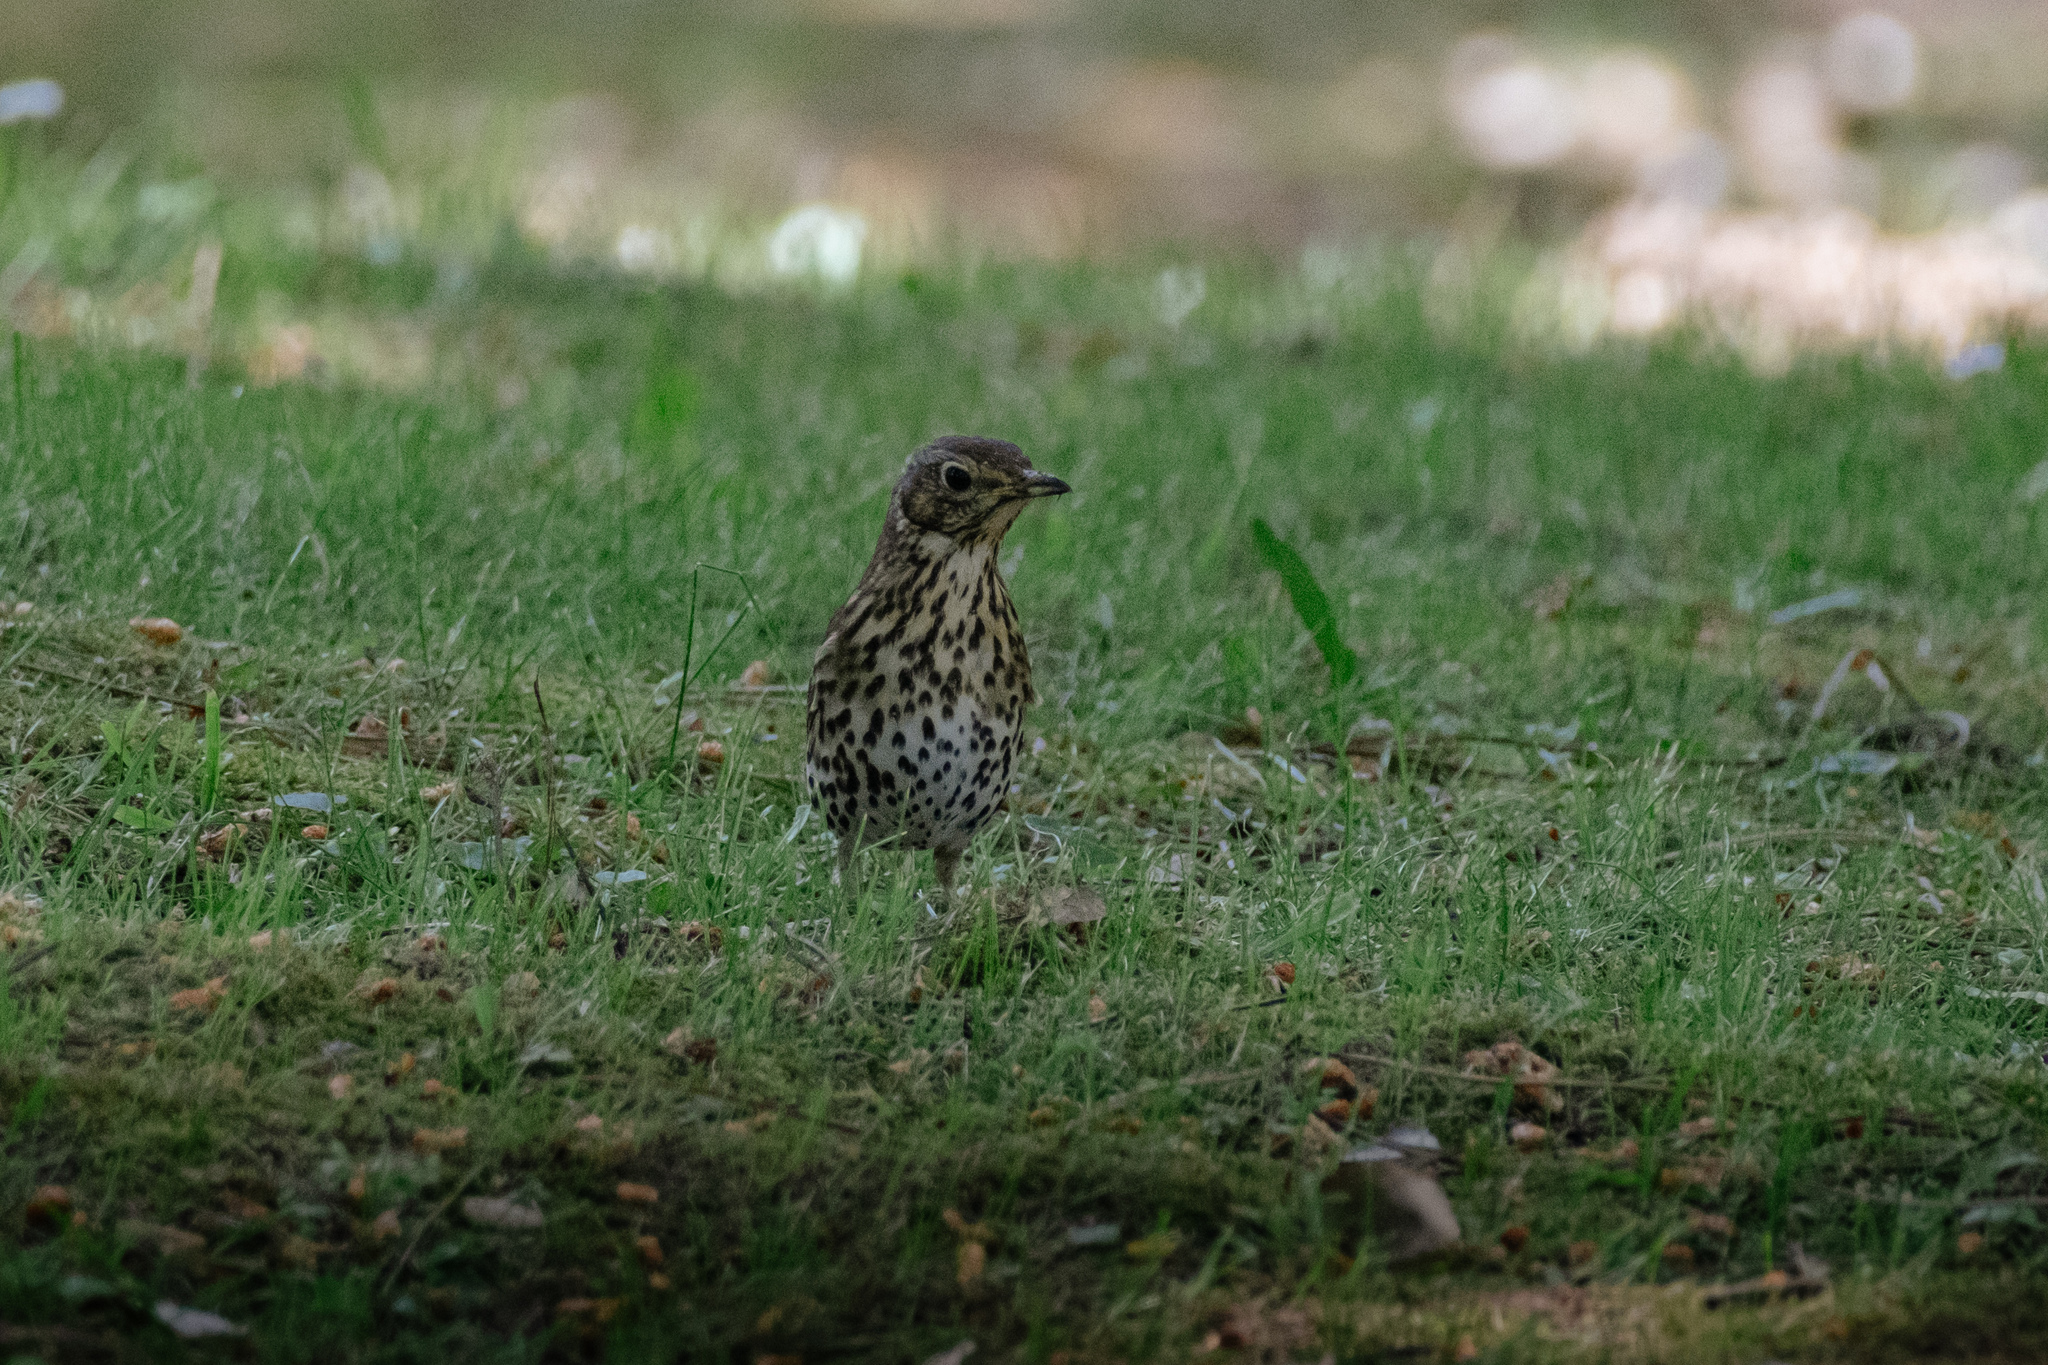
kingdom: Animalia
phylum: Chordata
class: Aves
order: Passeriformes
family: Turdidae
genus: Turdus
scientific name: Turdus philomelos
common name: Song thrush
